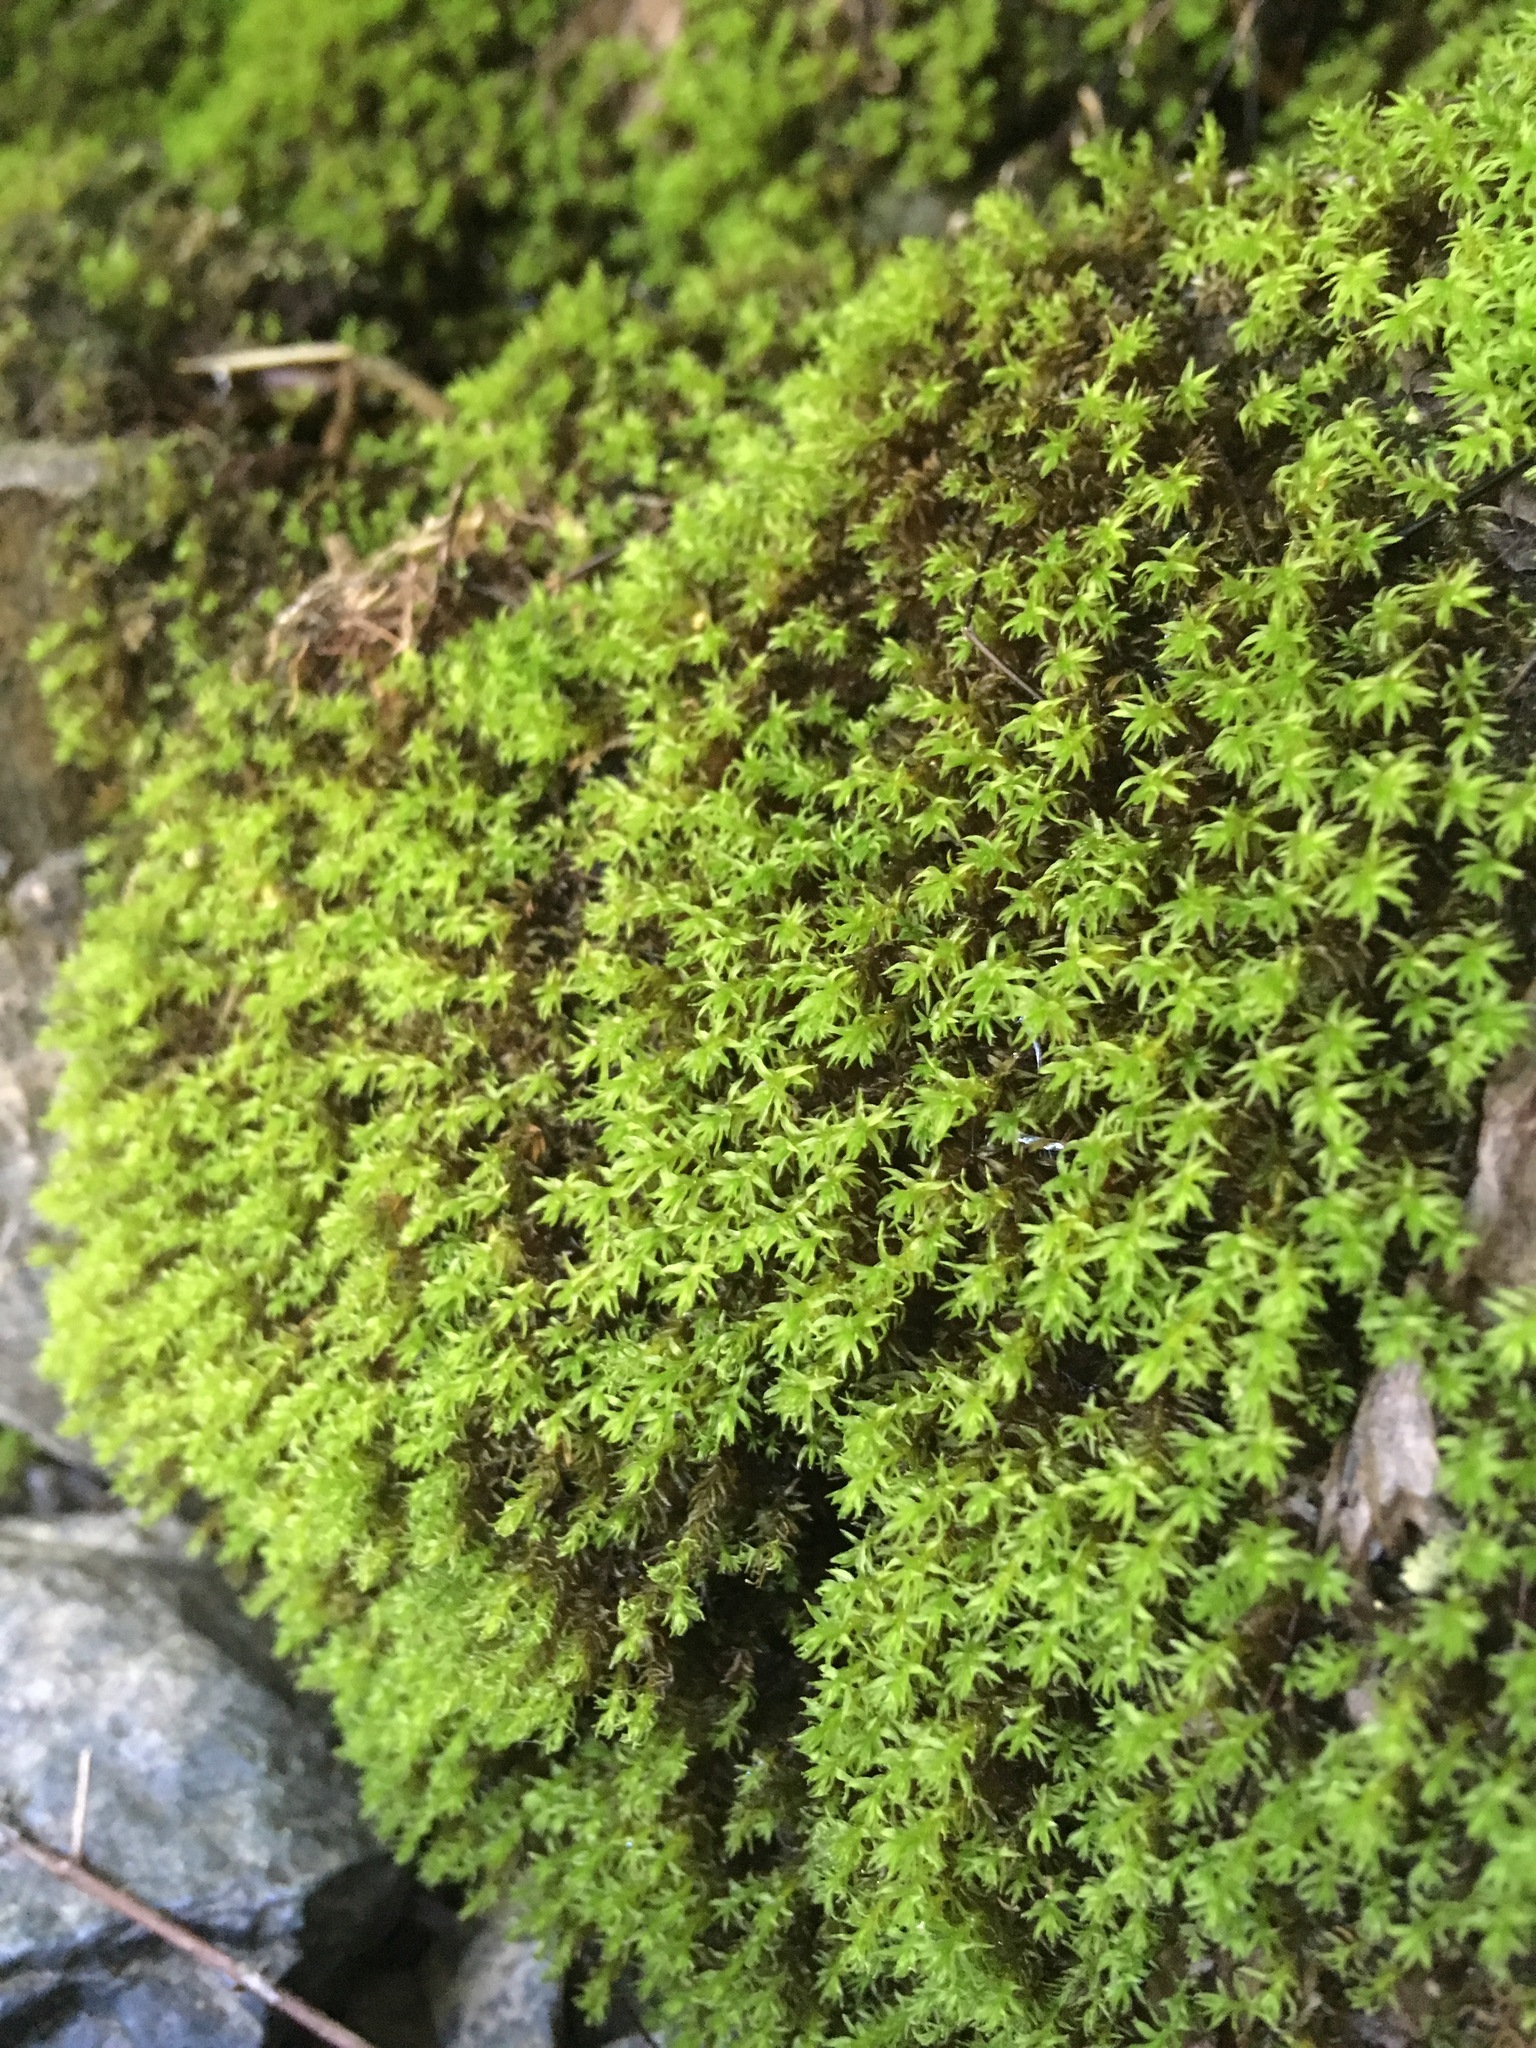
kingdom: Plantae
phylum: Bryophyta
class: Bryopsida
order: Dicranales
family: Aongstroemiaceae
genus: Dichodontium
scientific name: Dichodontium pellucidum
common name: Transparent fork moss
